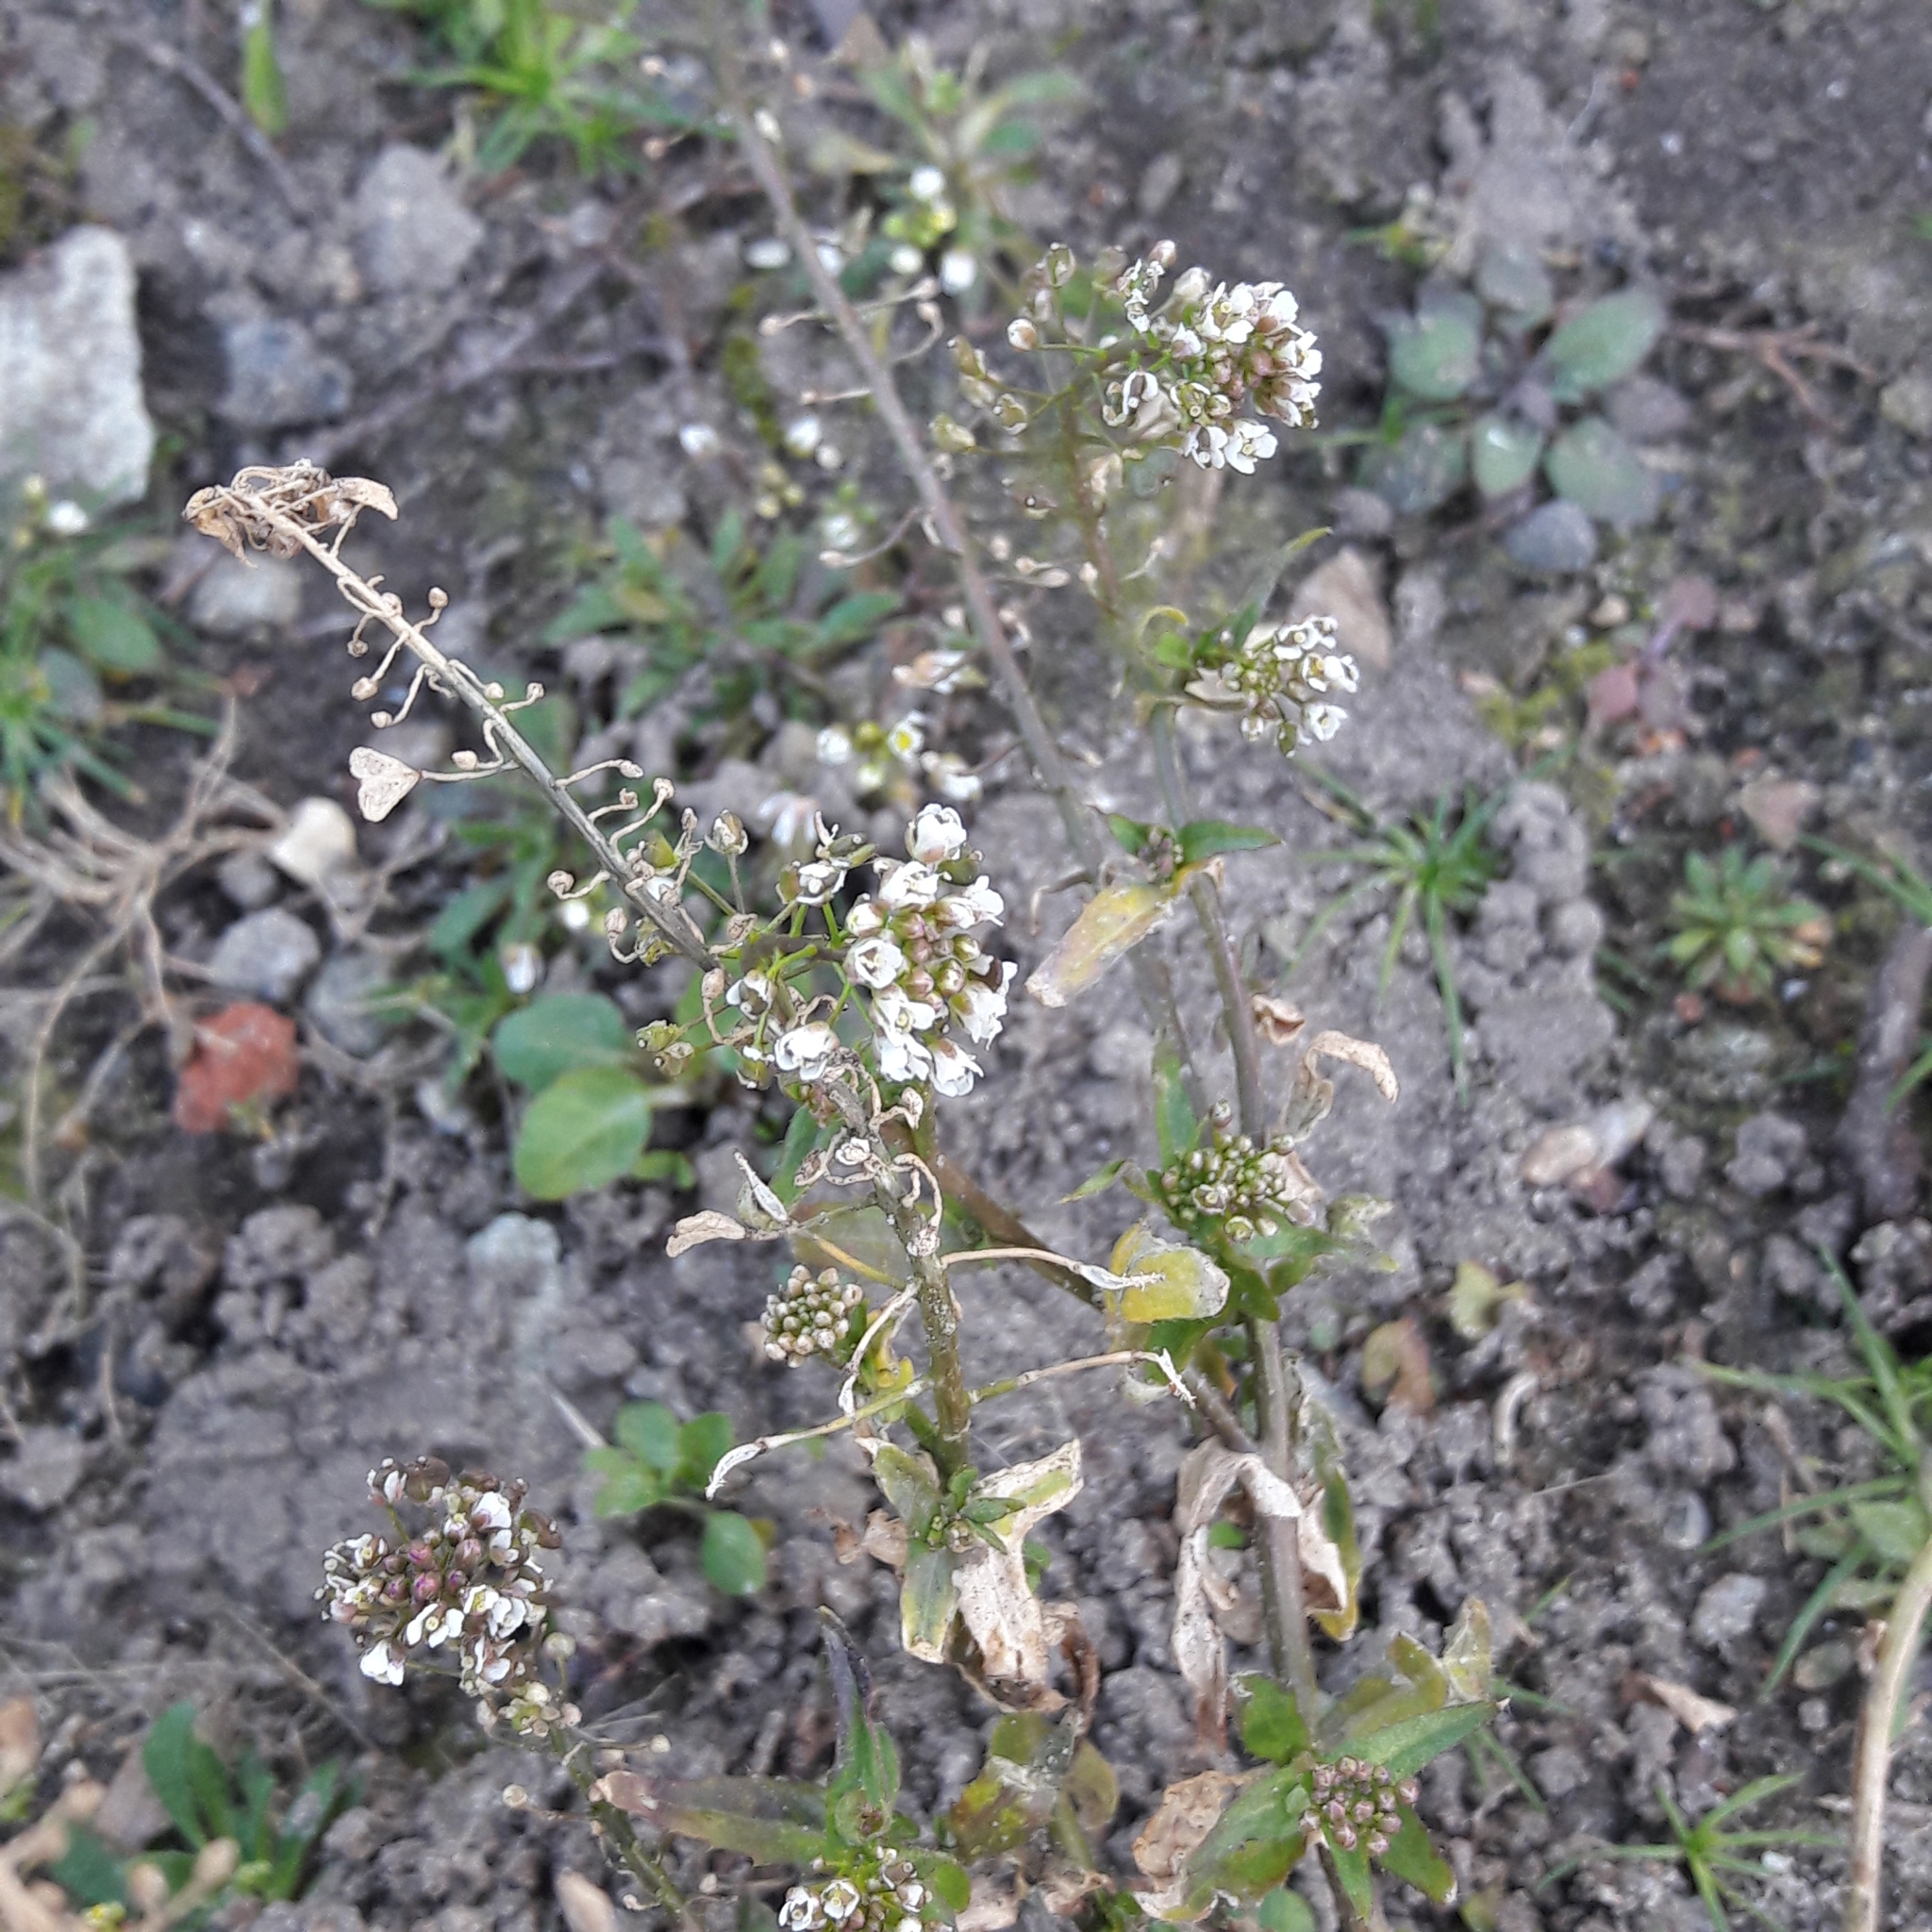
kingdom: Plantae
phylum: Tracheophyta
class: Magnoliopsida
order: Brassicales
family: Brassicaceae
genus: Capsella
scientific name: Capsella bursa-pastoris
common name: Shepherd's purse
